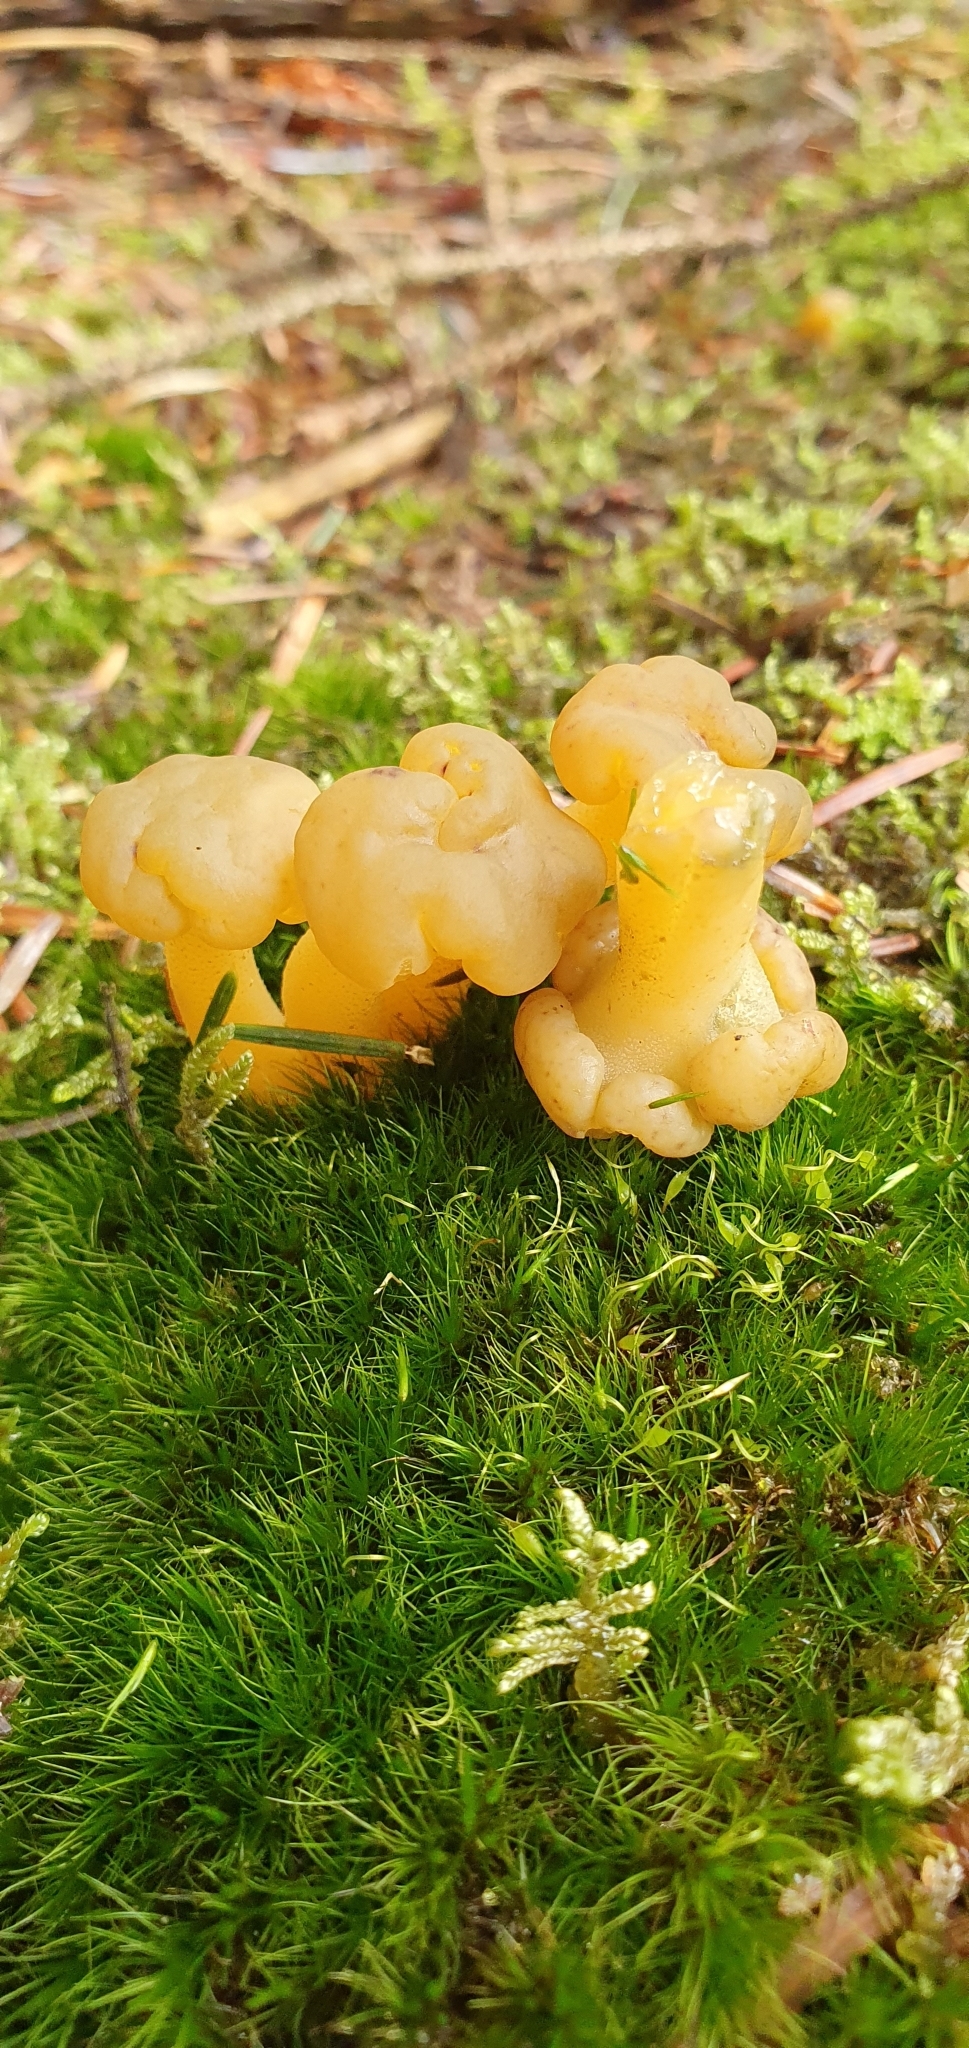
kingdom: Fungi
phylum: Ascomycota
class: Leotiomycetes
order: Leotiales
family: Leotiaceae
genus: Leotia
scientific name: Leotia lubrica
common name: Jellybaby
